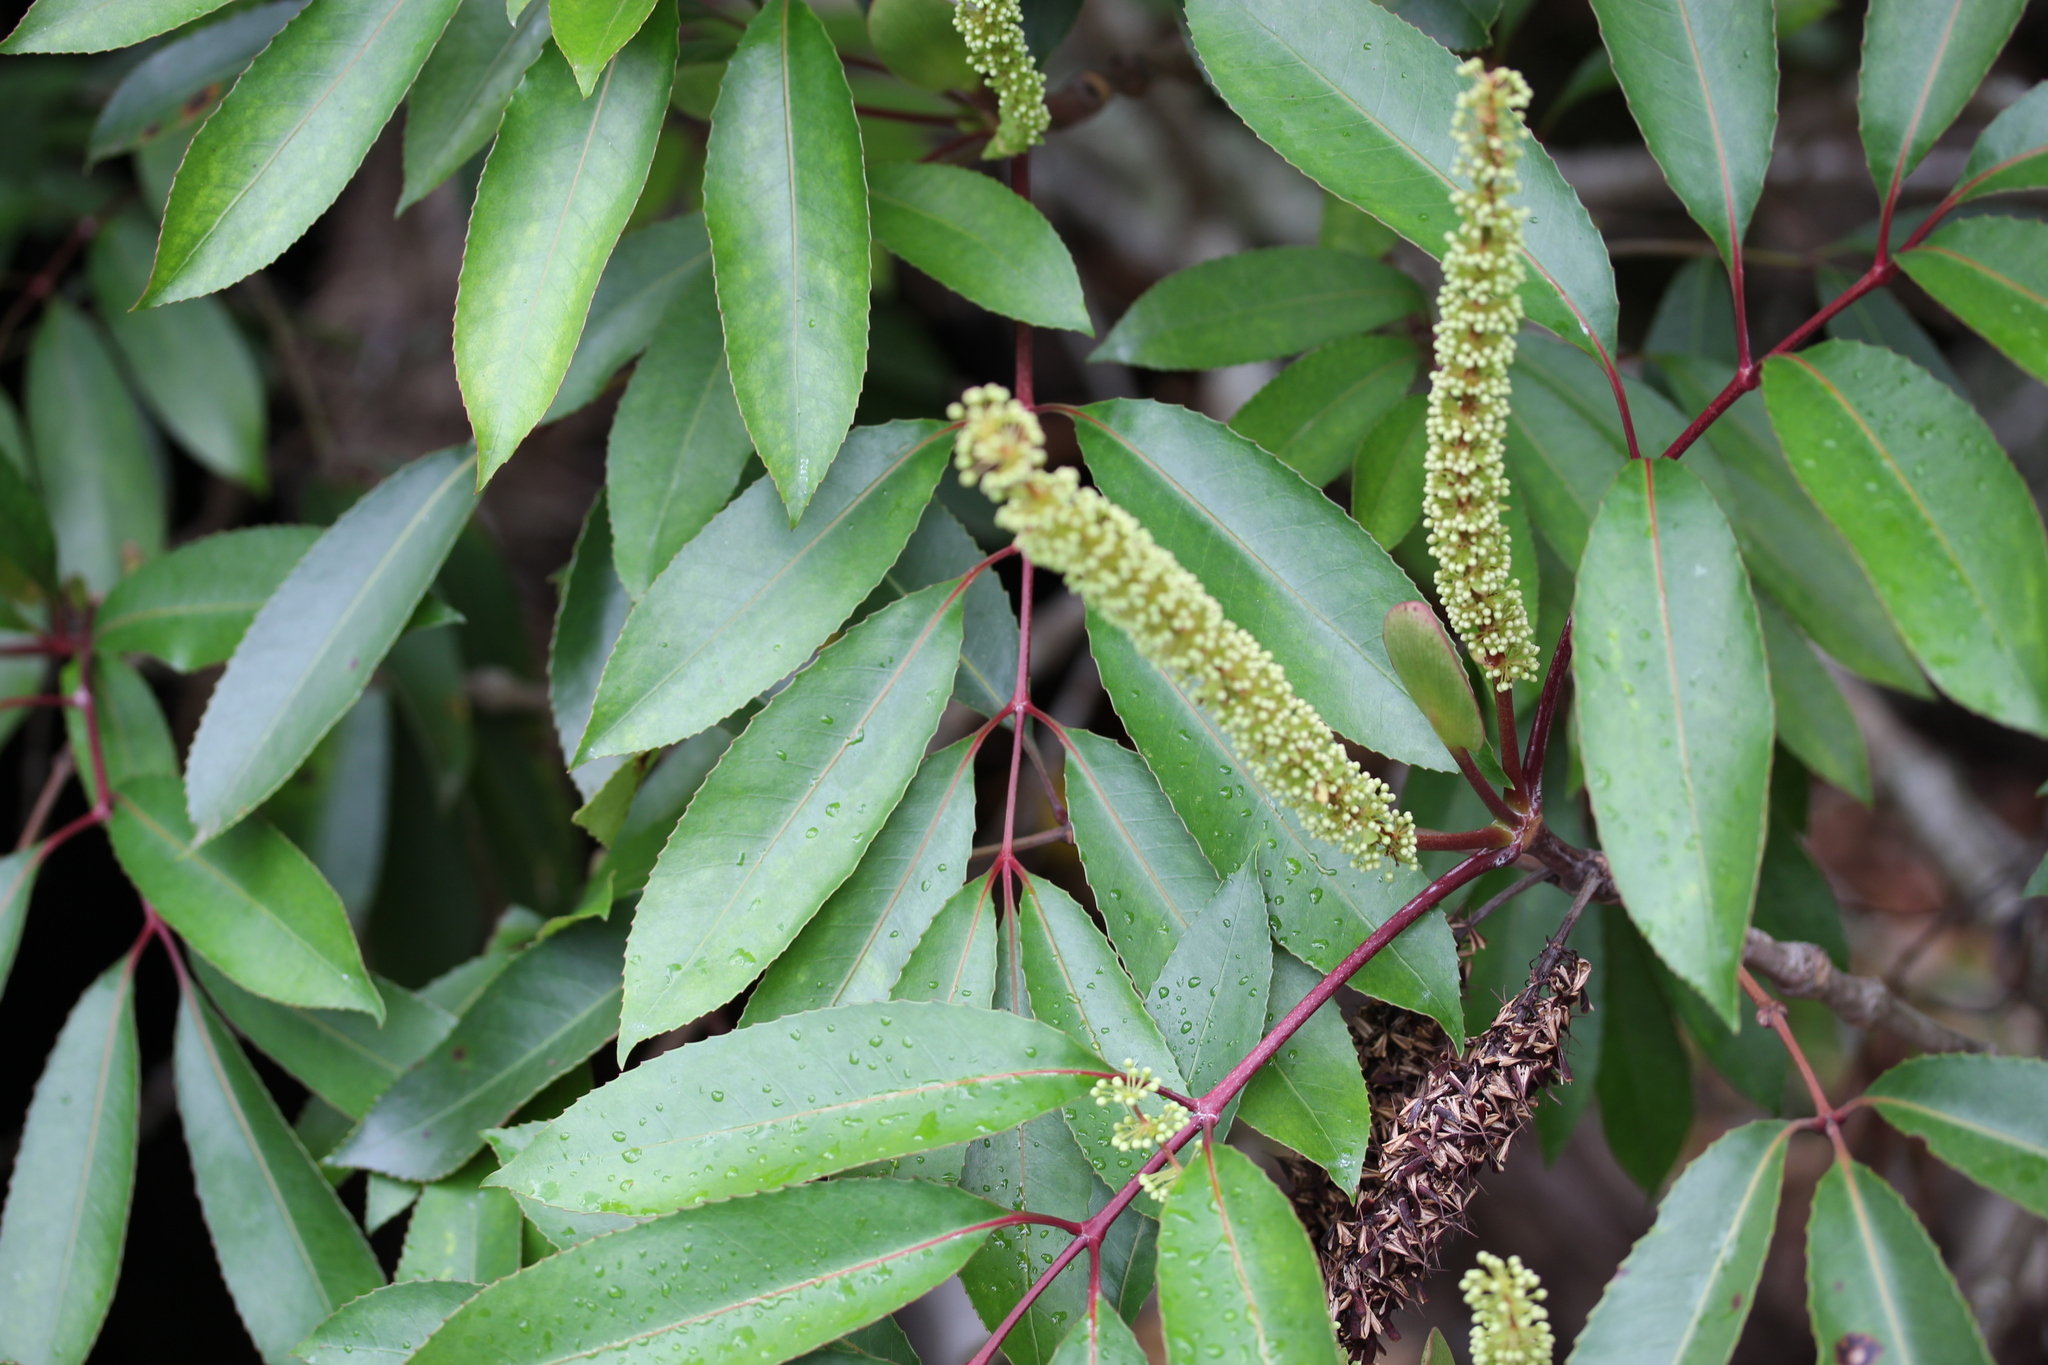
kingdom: Plantae
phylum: Tracheophyta
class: Magnoliopsida
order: Oxalidales
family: Cunoniaceae
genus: Cunonia
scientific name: Cunonia capensis
